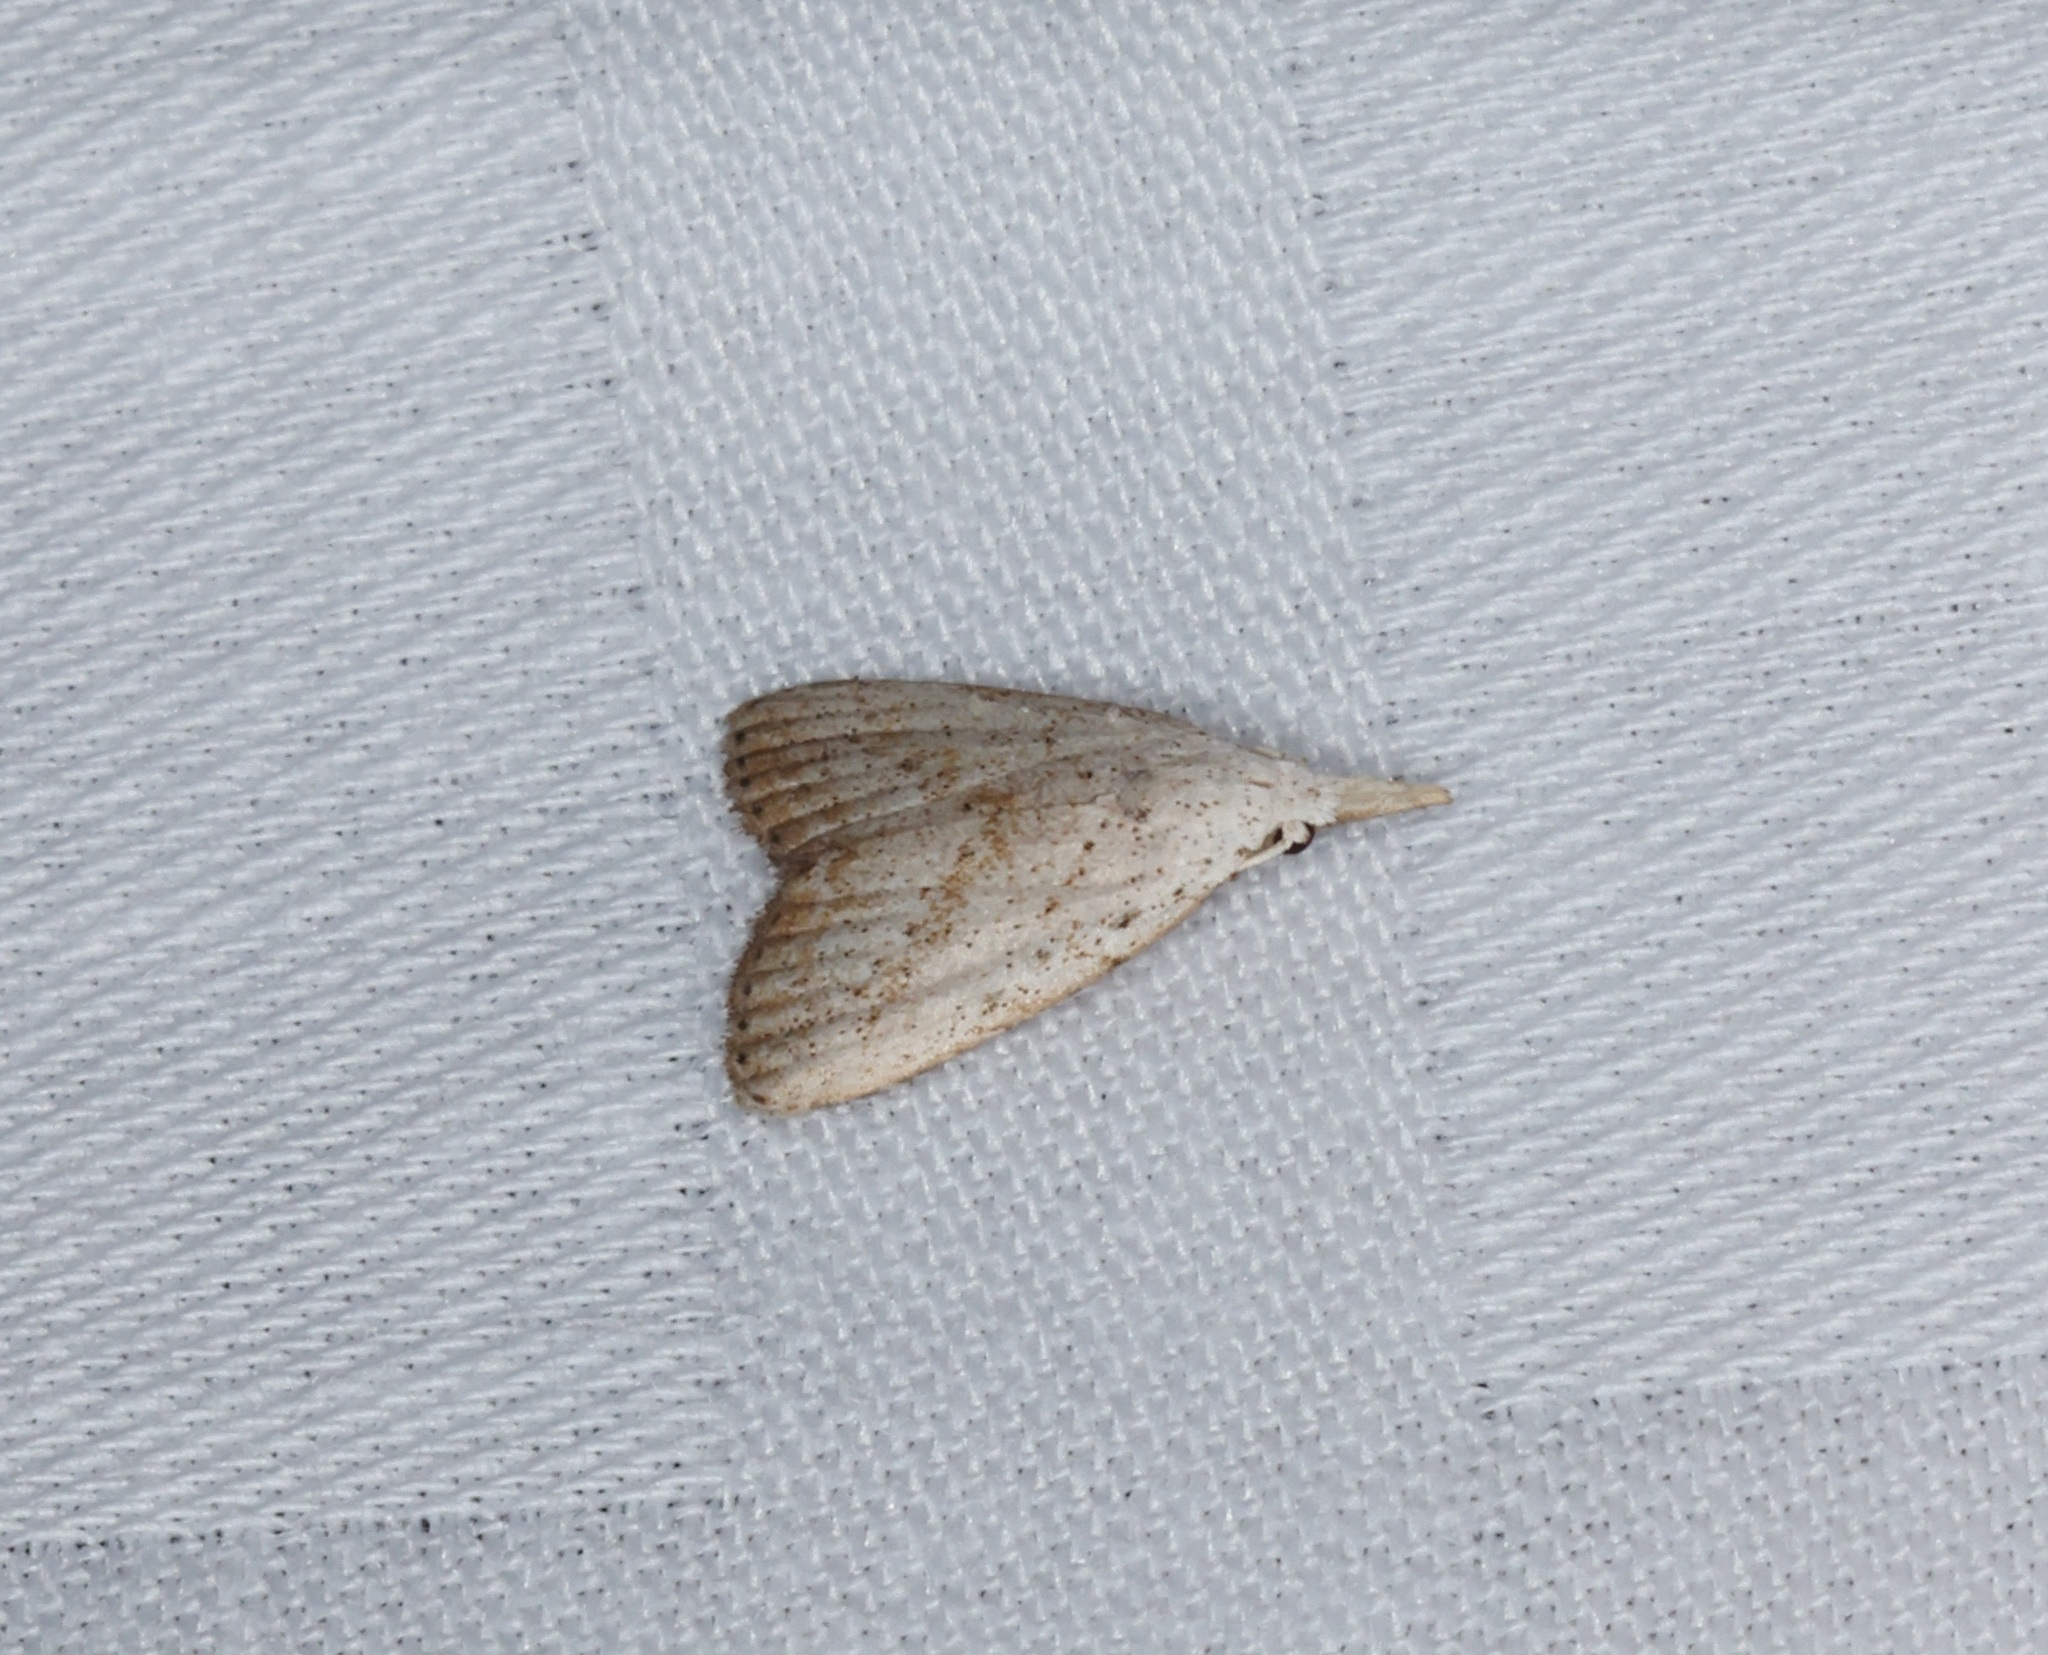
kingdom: Animalia
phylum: Arthropoda
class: Insecta
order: Lepidoptera
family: Nolidae
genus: Meganola
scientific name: Meganola brunellus
